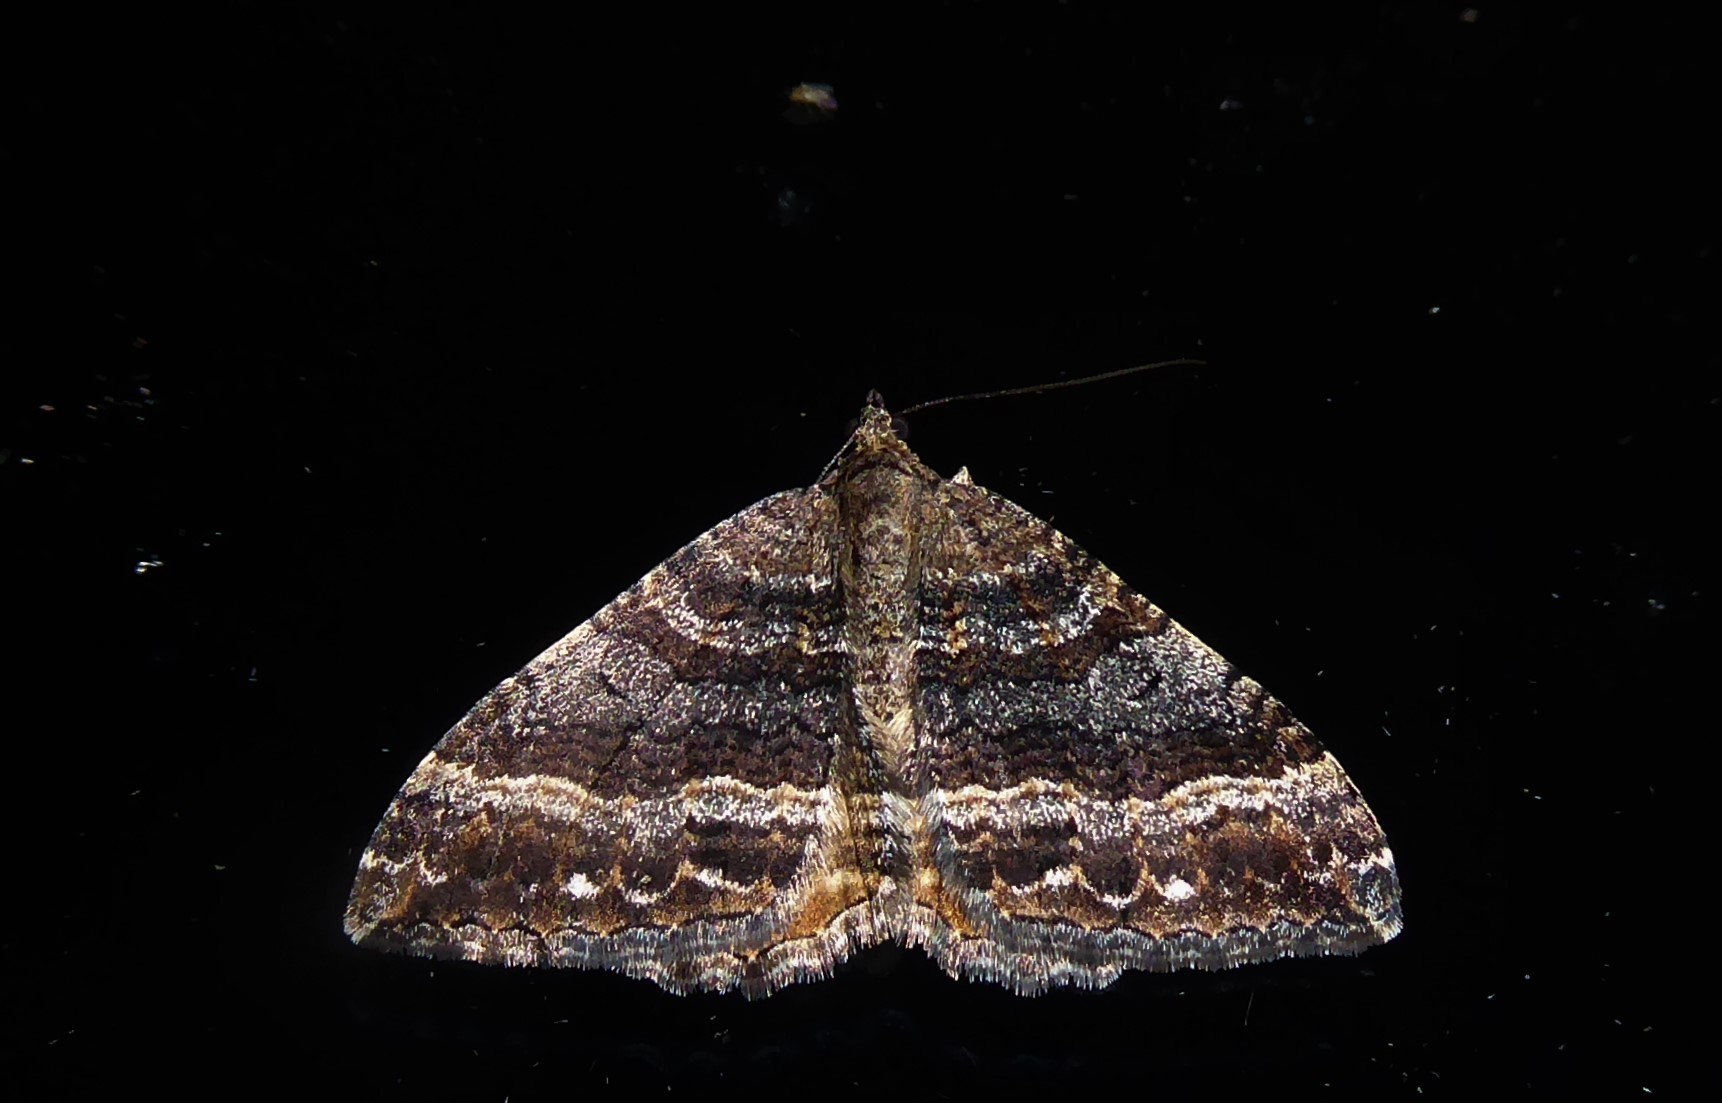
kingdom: Animalia
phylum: Arthropoda
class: Insecta
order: Lepidoptera
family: Geometridae
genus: Hydriomena
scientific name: Hydriomena deltoidata
